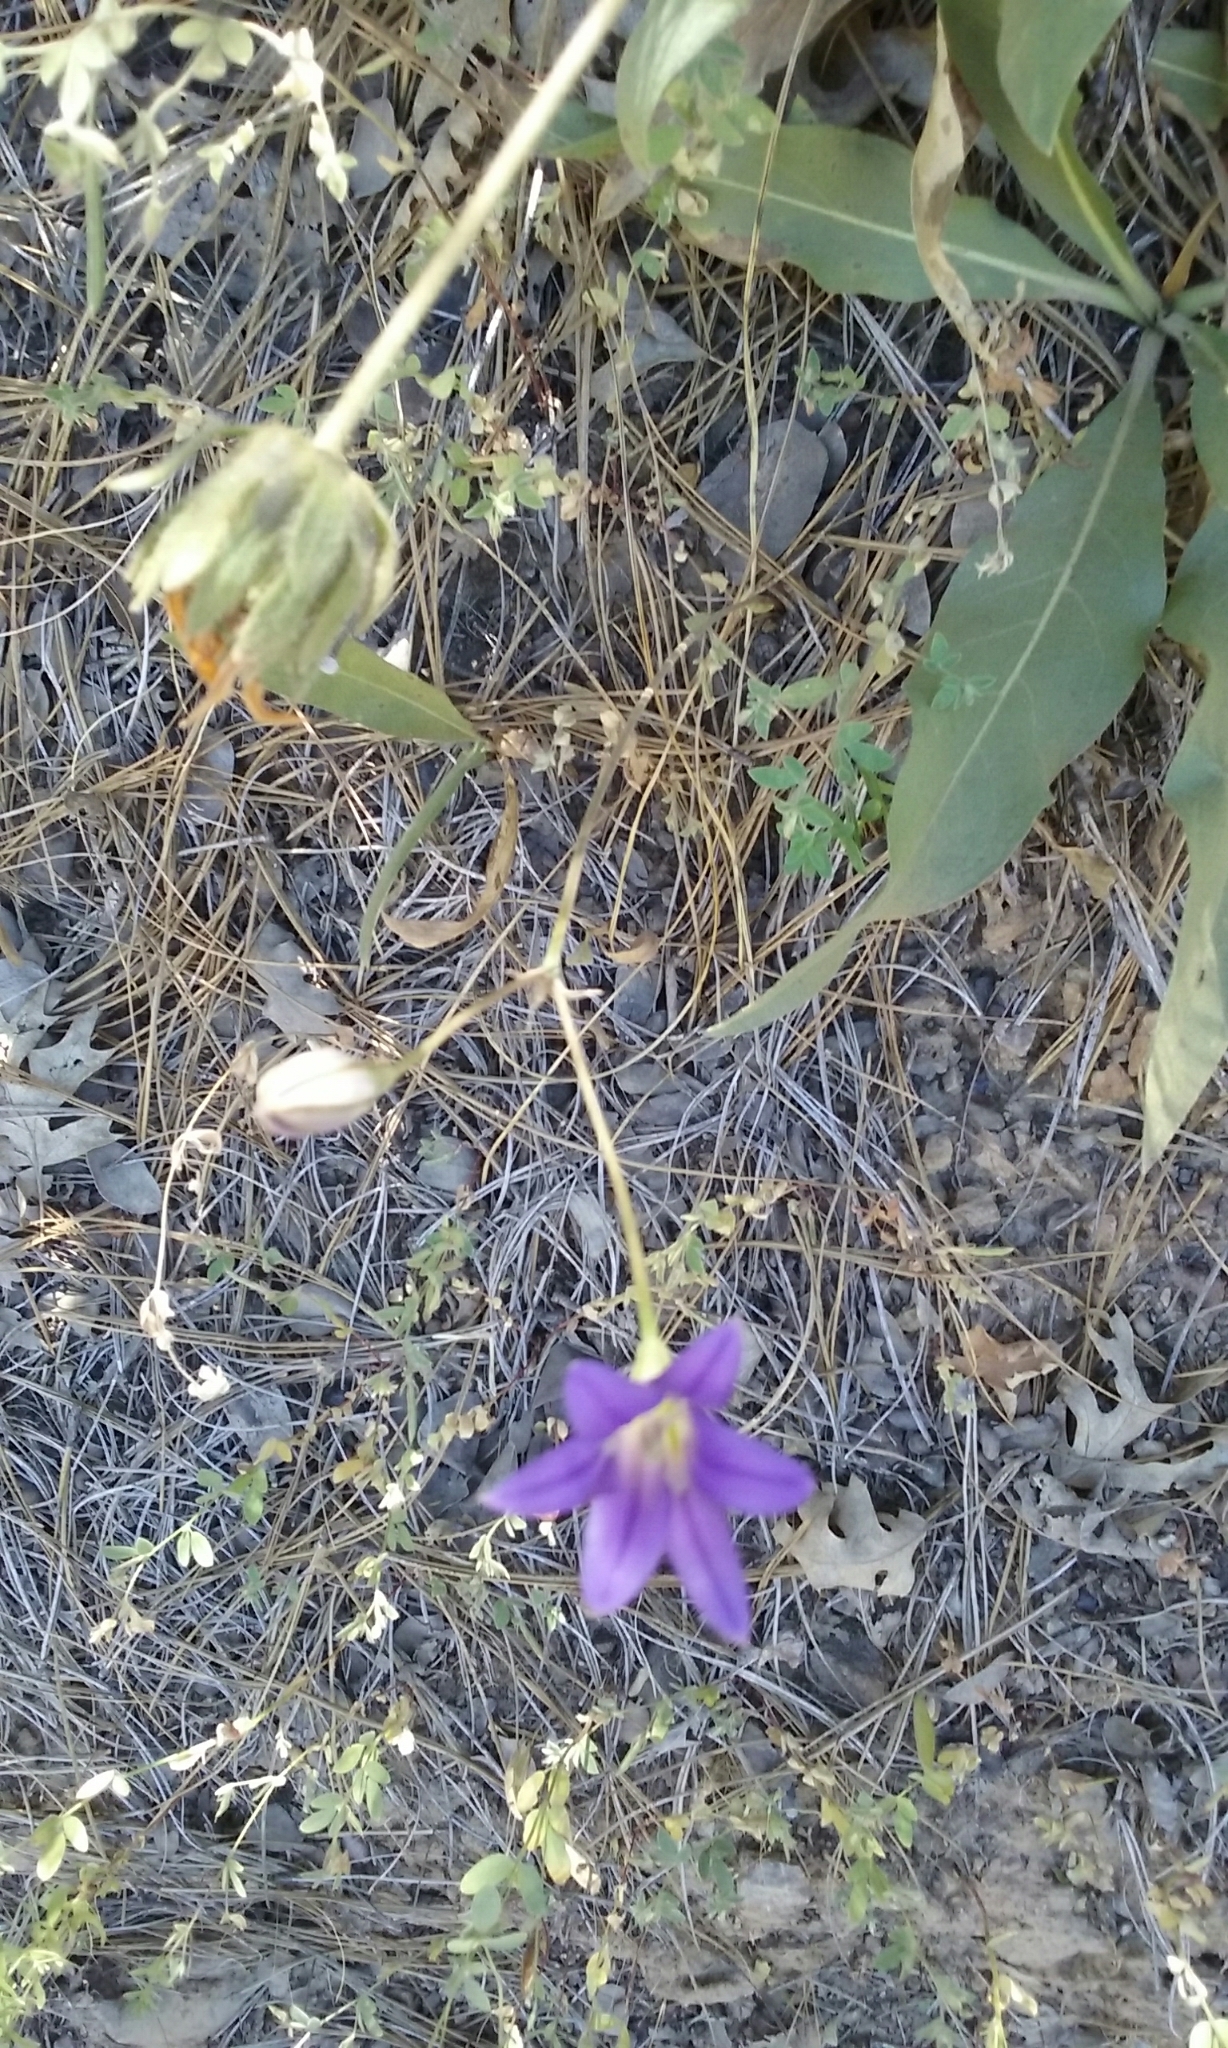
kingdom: Plantae
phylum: Tracheophyta
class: Liliopsida
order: Asparagales
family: Asparagaceae
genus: Brodiaea
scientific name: Brodiaea elegans
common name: Elegant cluster-lily
